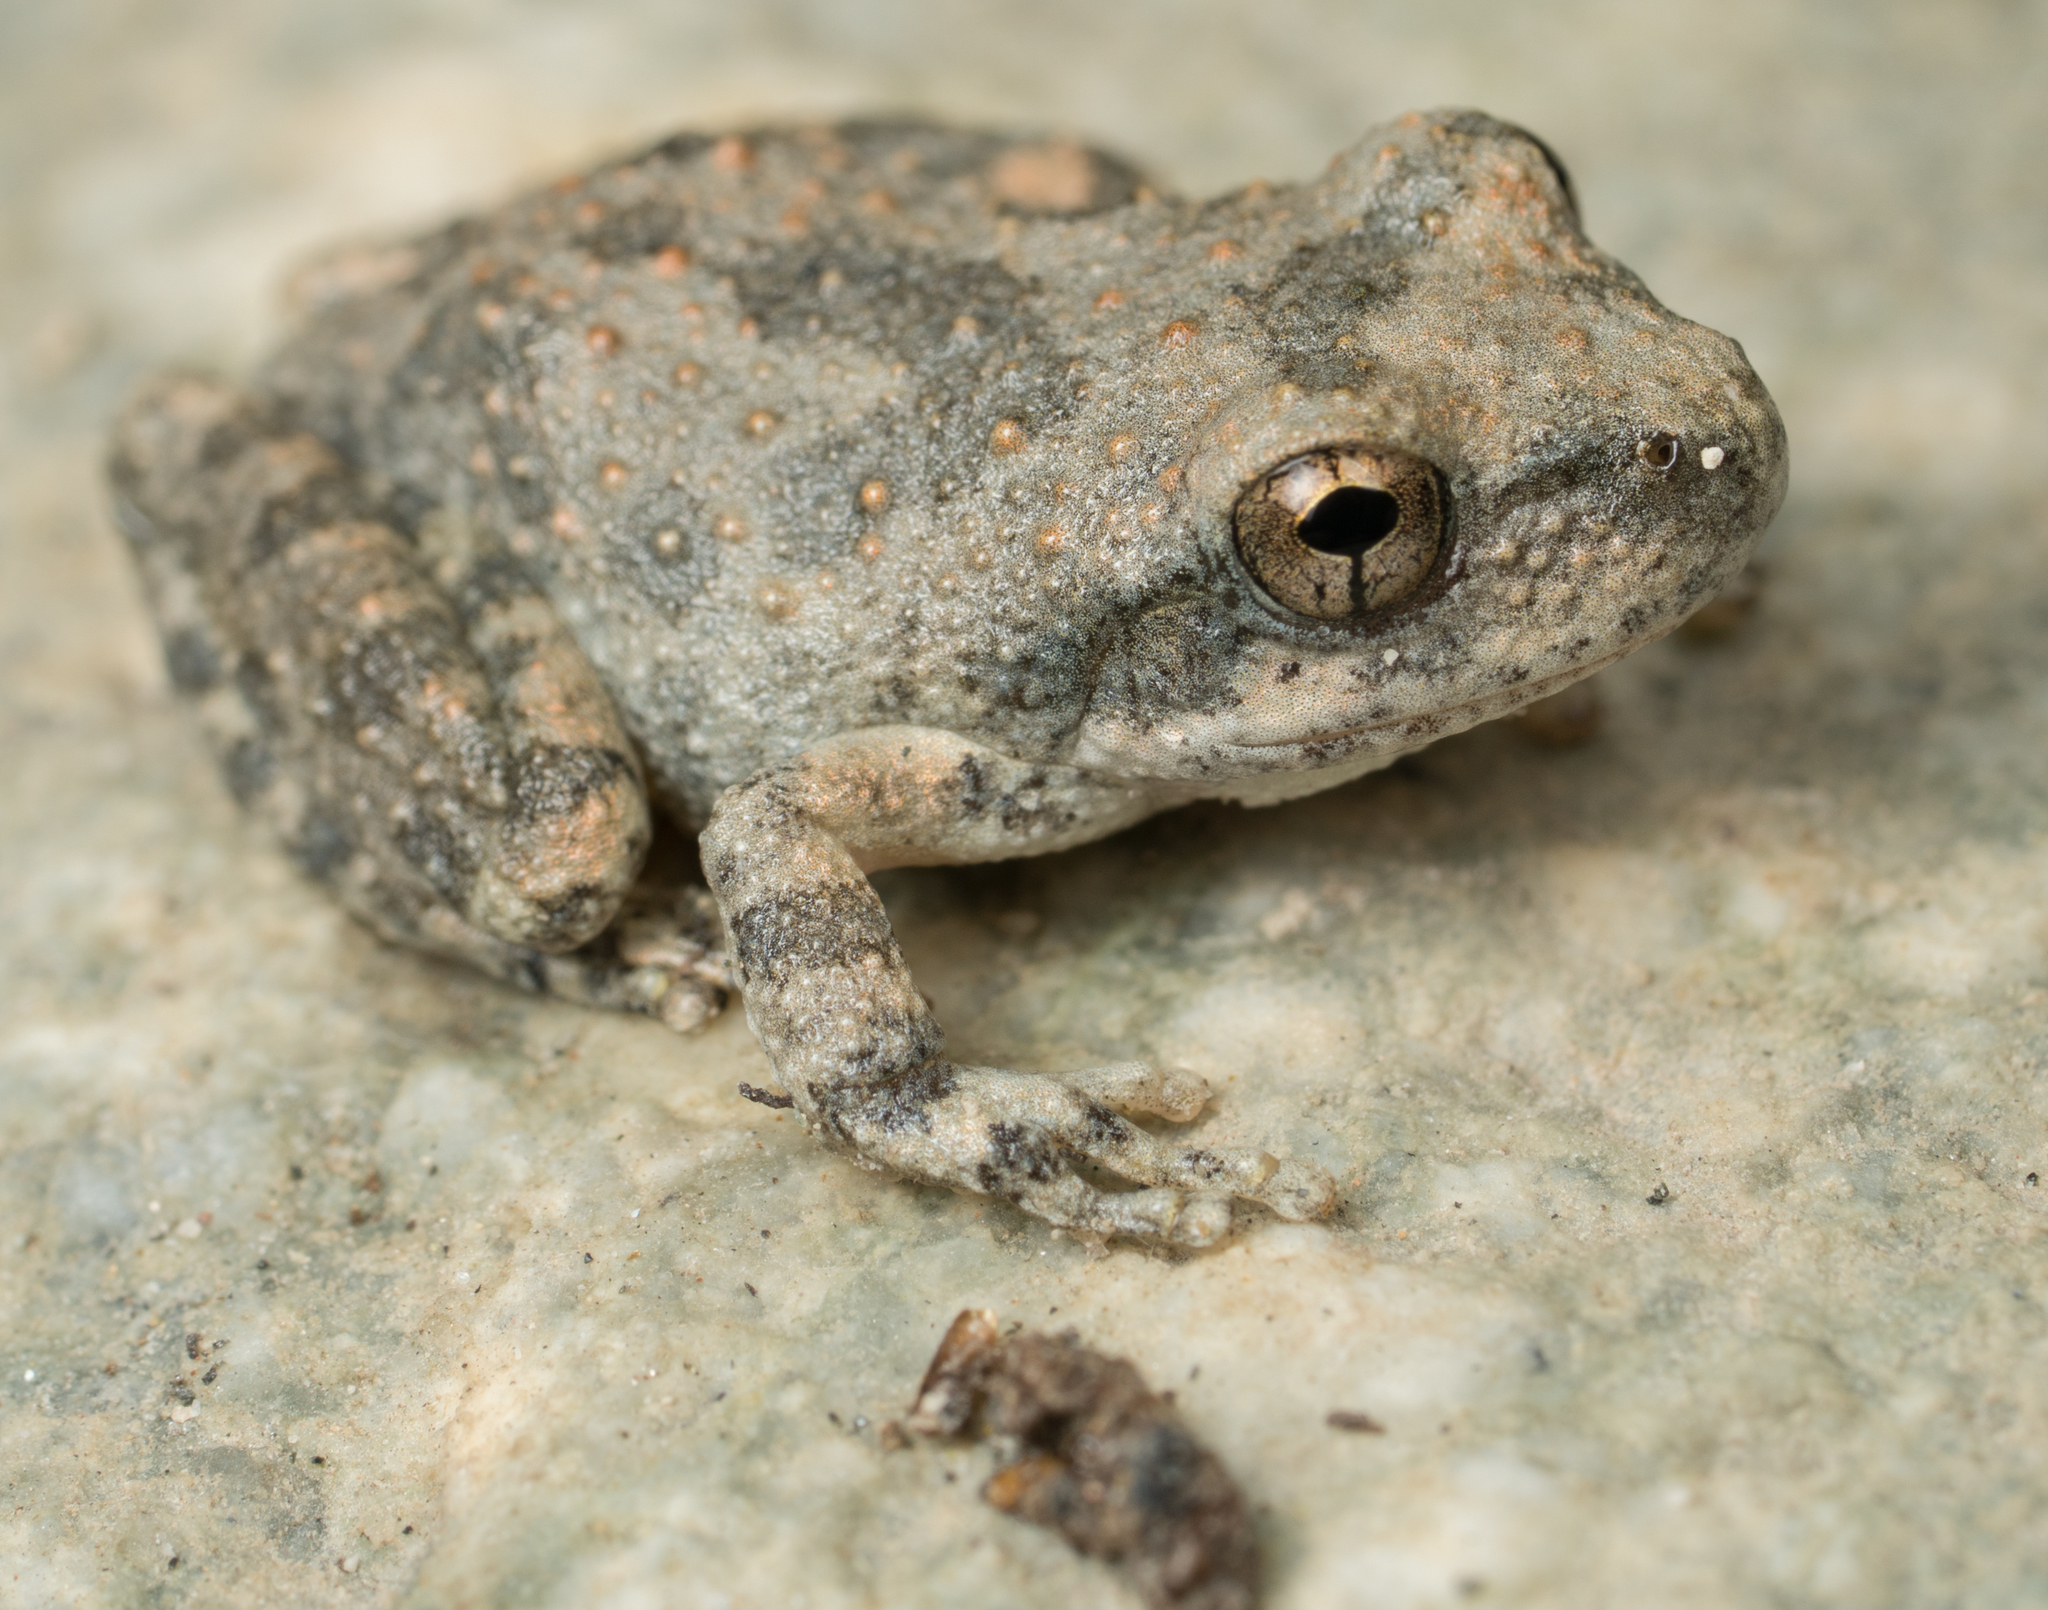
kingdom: Animalia
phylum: Chordata
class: Amphibia
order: Anura
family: Hylidae
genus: Pseudacris
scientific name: Pseudacris cadaverina
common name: California chorus frog
